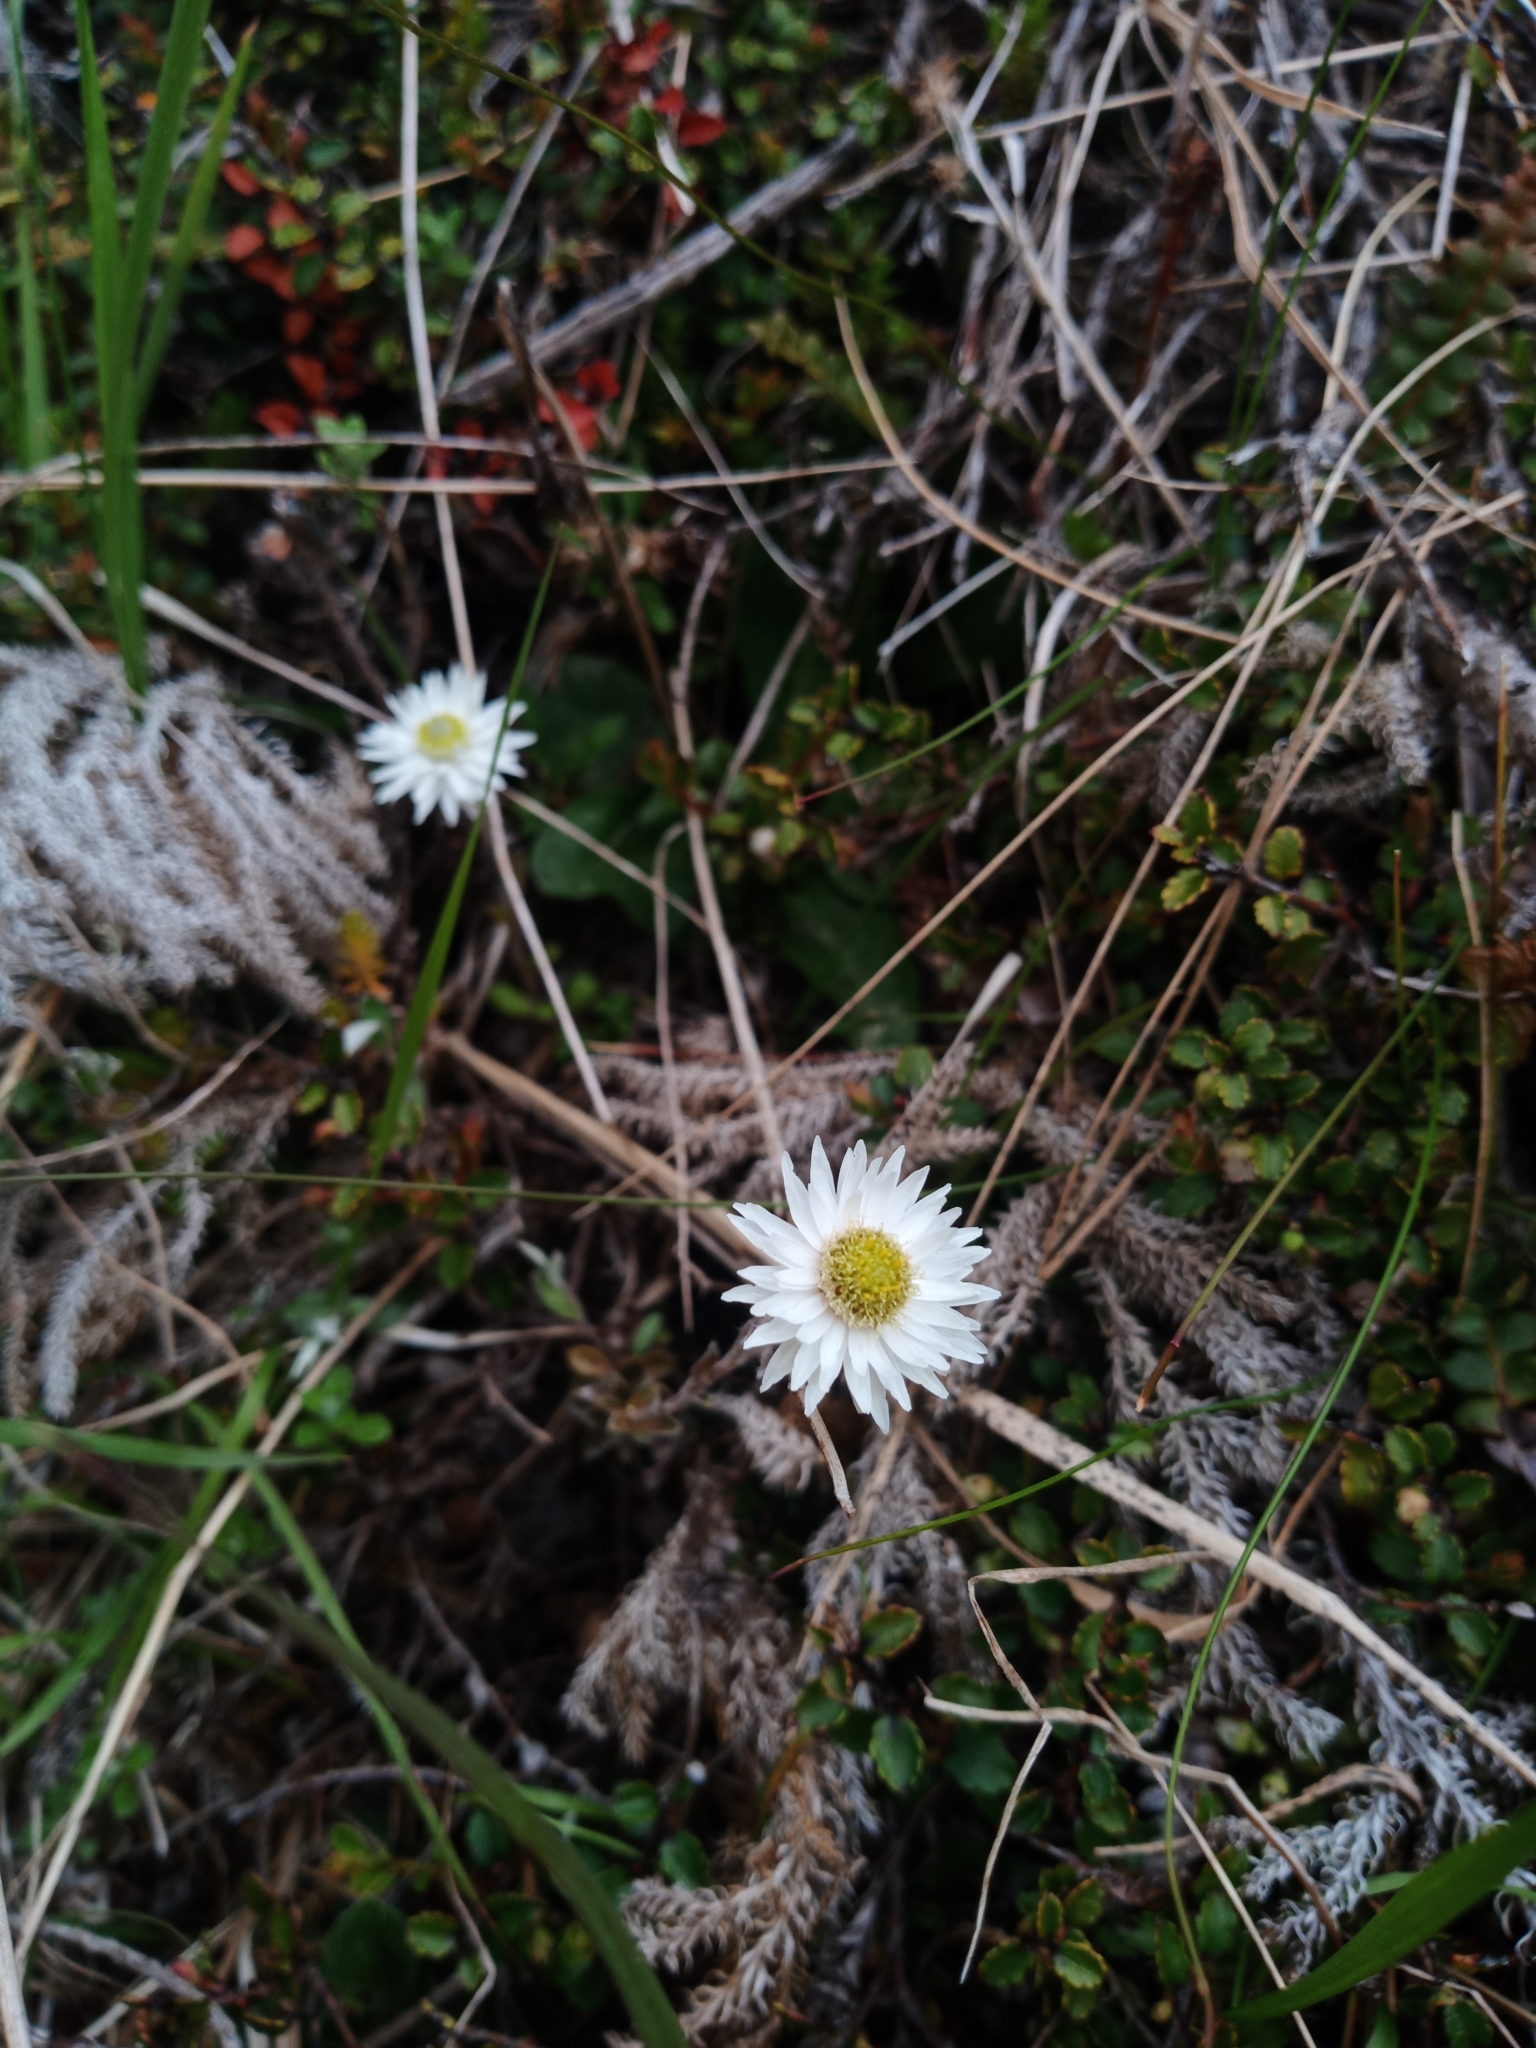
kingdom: Plantae
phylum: Tracheophyta
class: Magnoliopsida
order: Asterales
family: Asteraceae
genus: Anaphalioides
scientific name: Anaphalioides bellidioides
